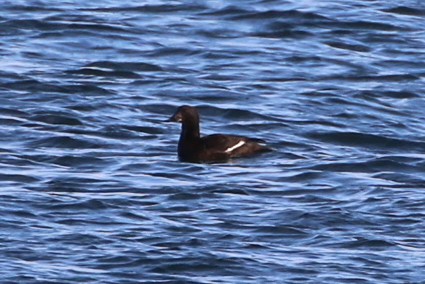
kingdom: Animalia
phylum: Chordata
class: Aves
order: Anseriformes
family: Anatidae
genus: Melanitta
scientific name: Melanitta deglandi
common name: White-winged scoter
